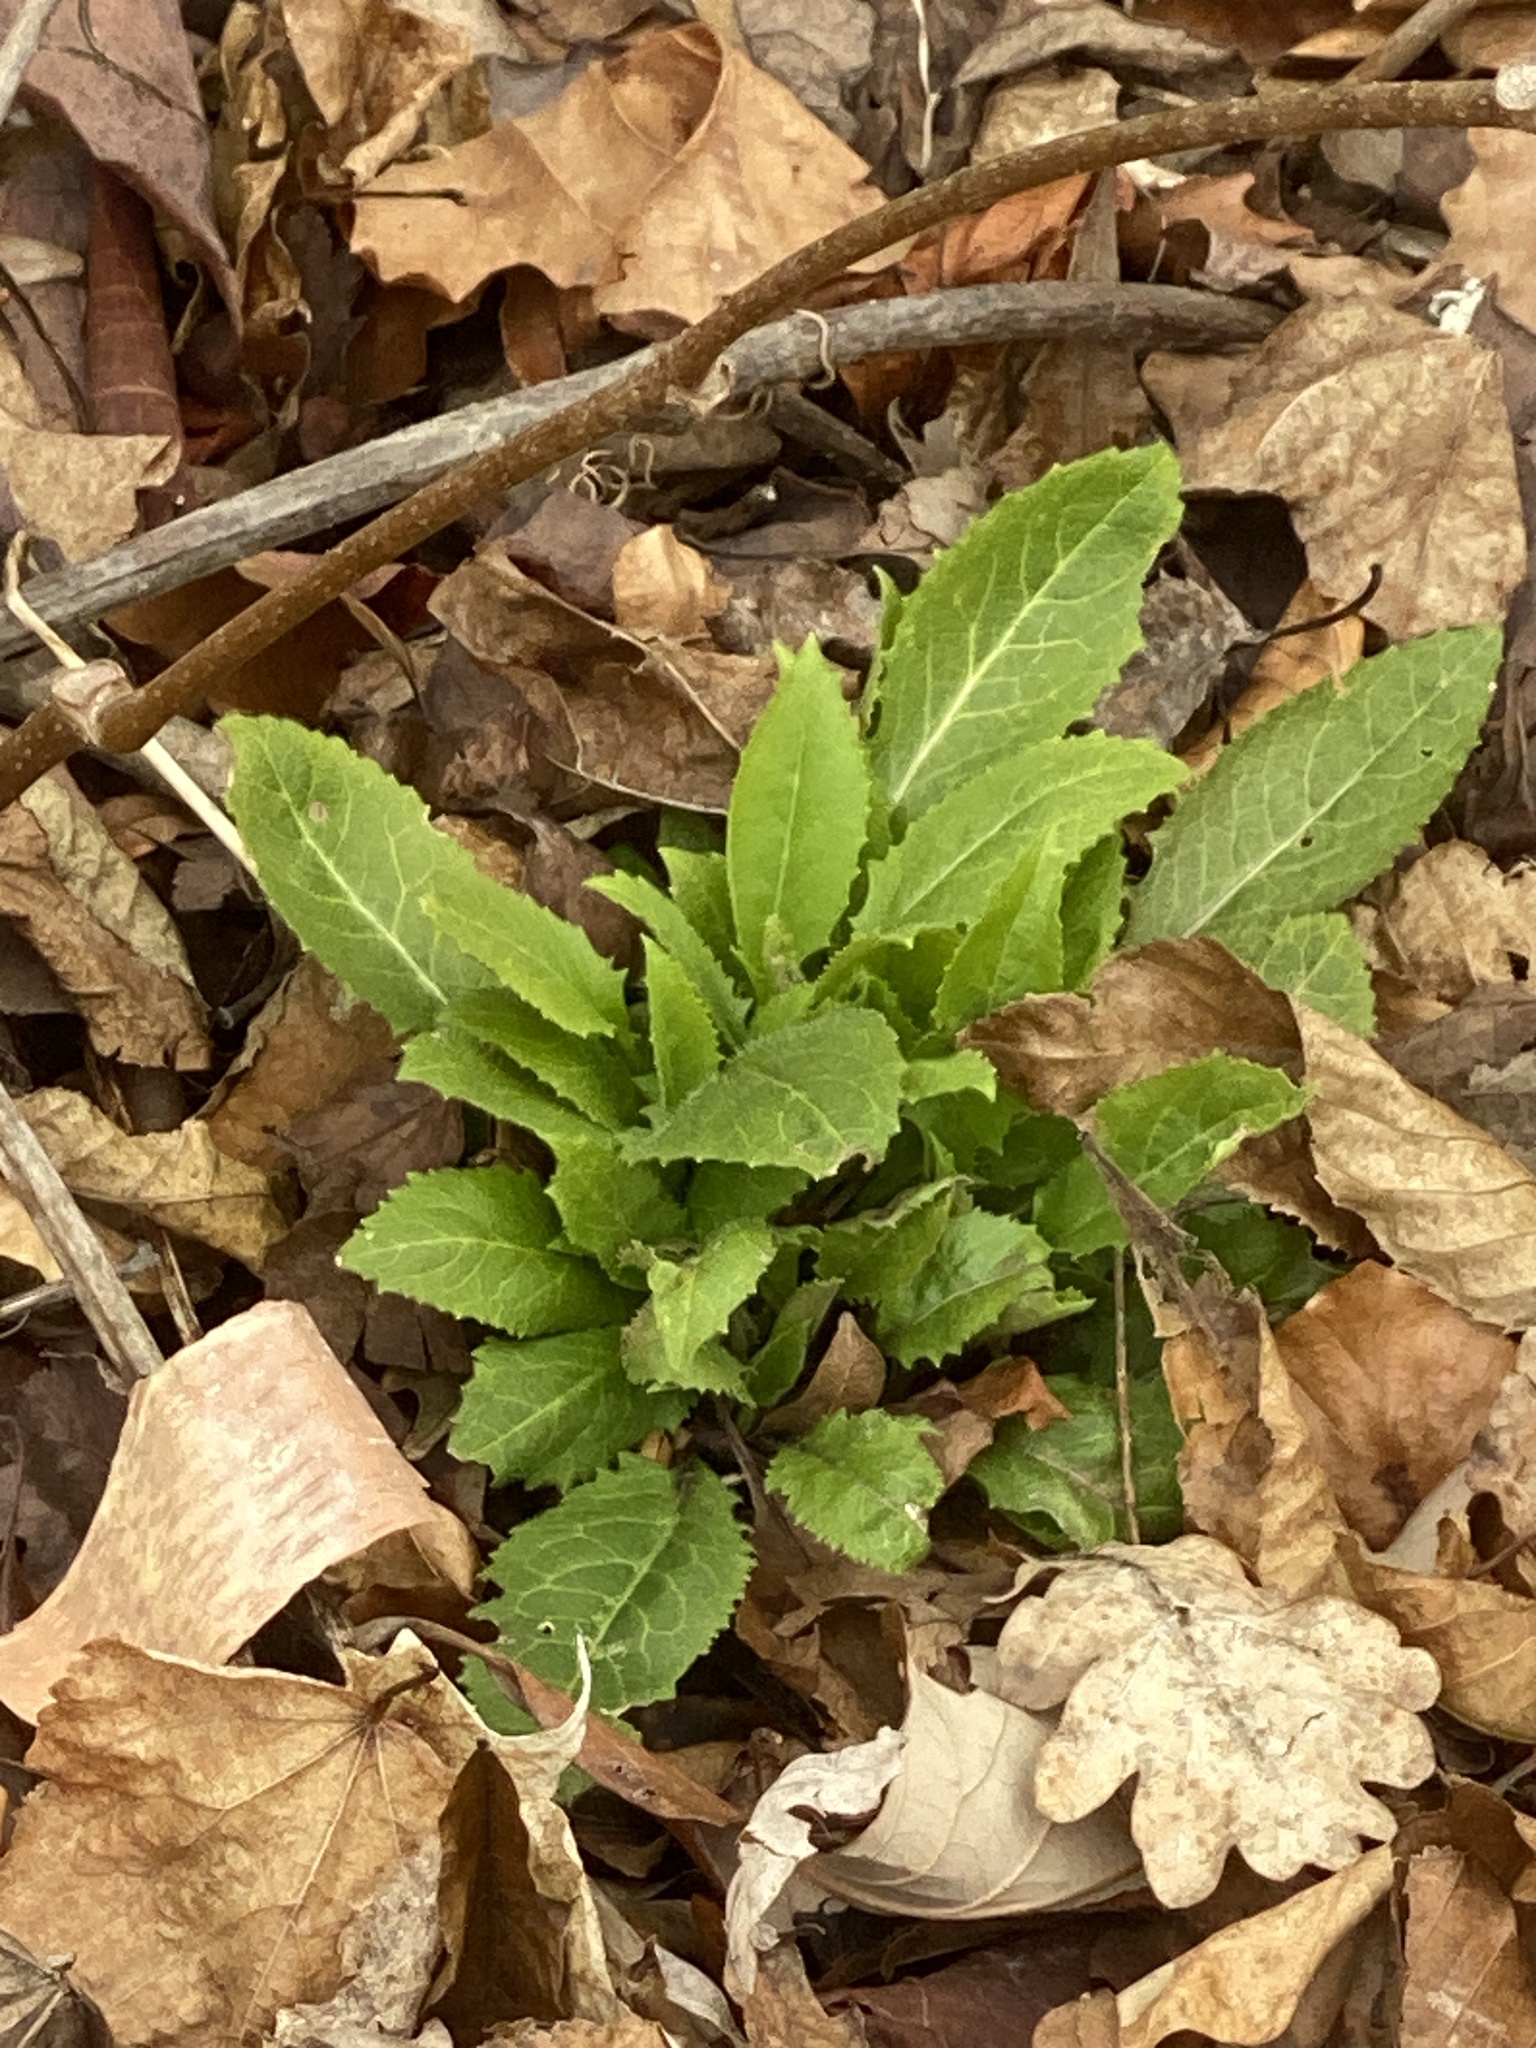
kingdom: Plantae
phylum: Tracheophyta
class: Magnoliopsida
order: Brassicales
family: Brassicaceae
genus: Hesperis
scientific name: Hesperis matronalis
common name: Dame's-violet
